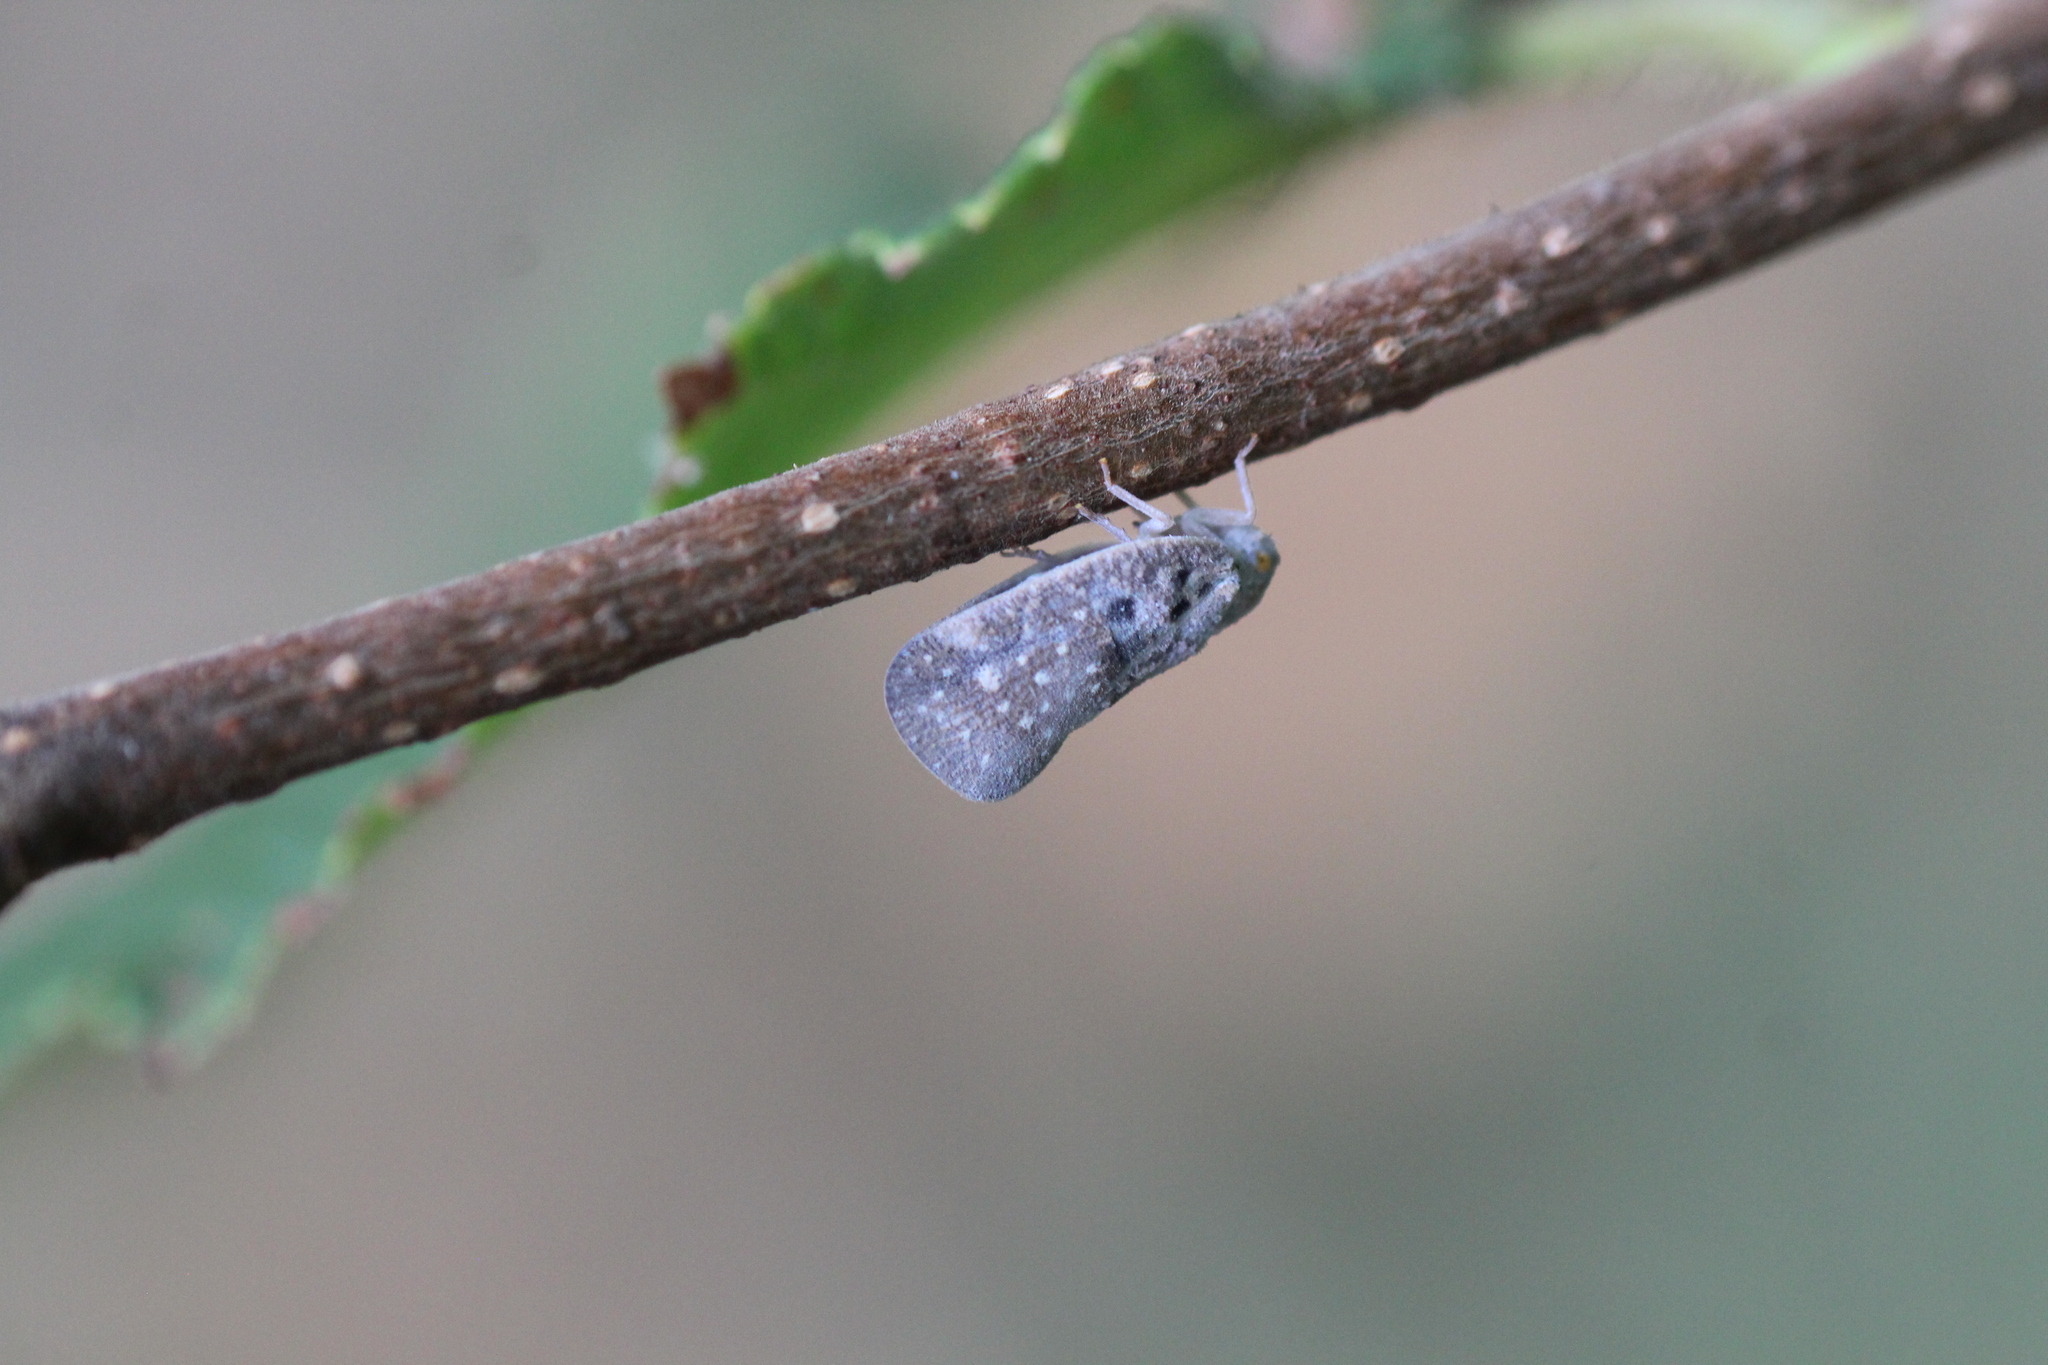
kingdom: Animalia
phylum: Arthropoda
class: Insecta
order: Hemiptera
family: Flatidae
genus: Metcalfa
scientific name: Metcalfa pruinosa
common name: Citrus flatid planthopper
